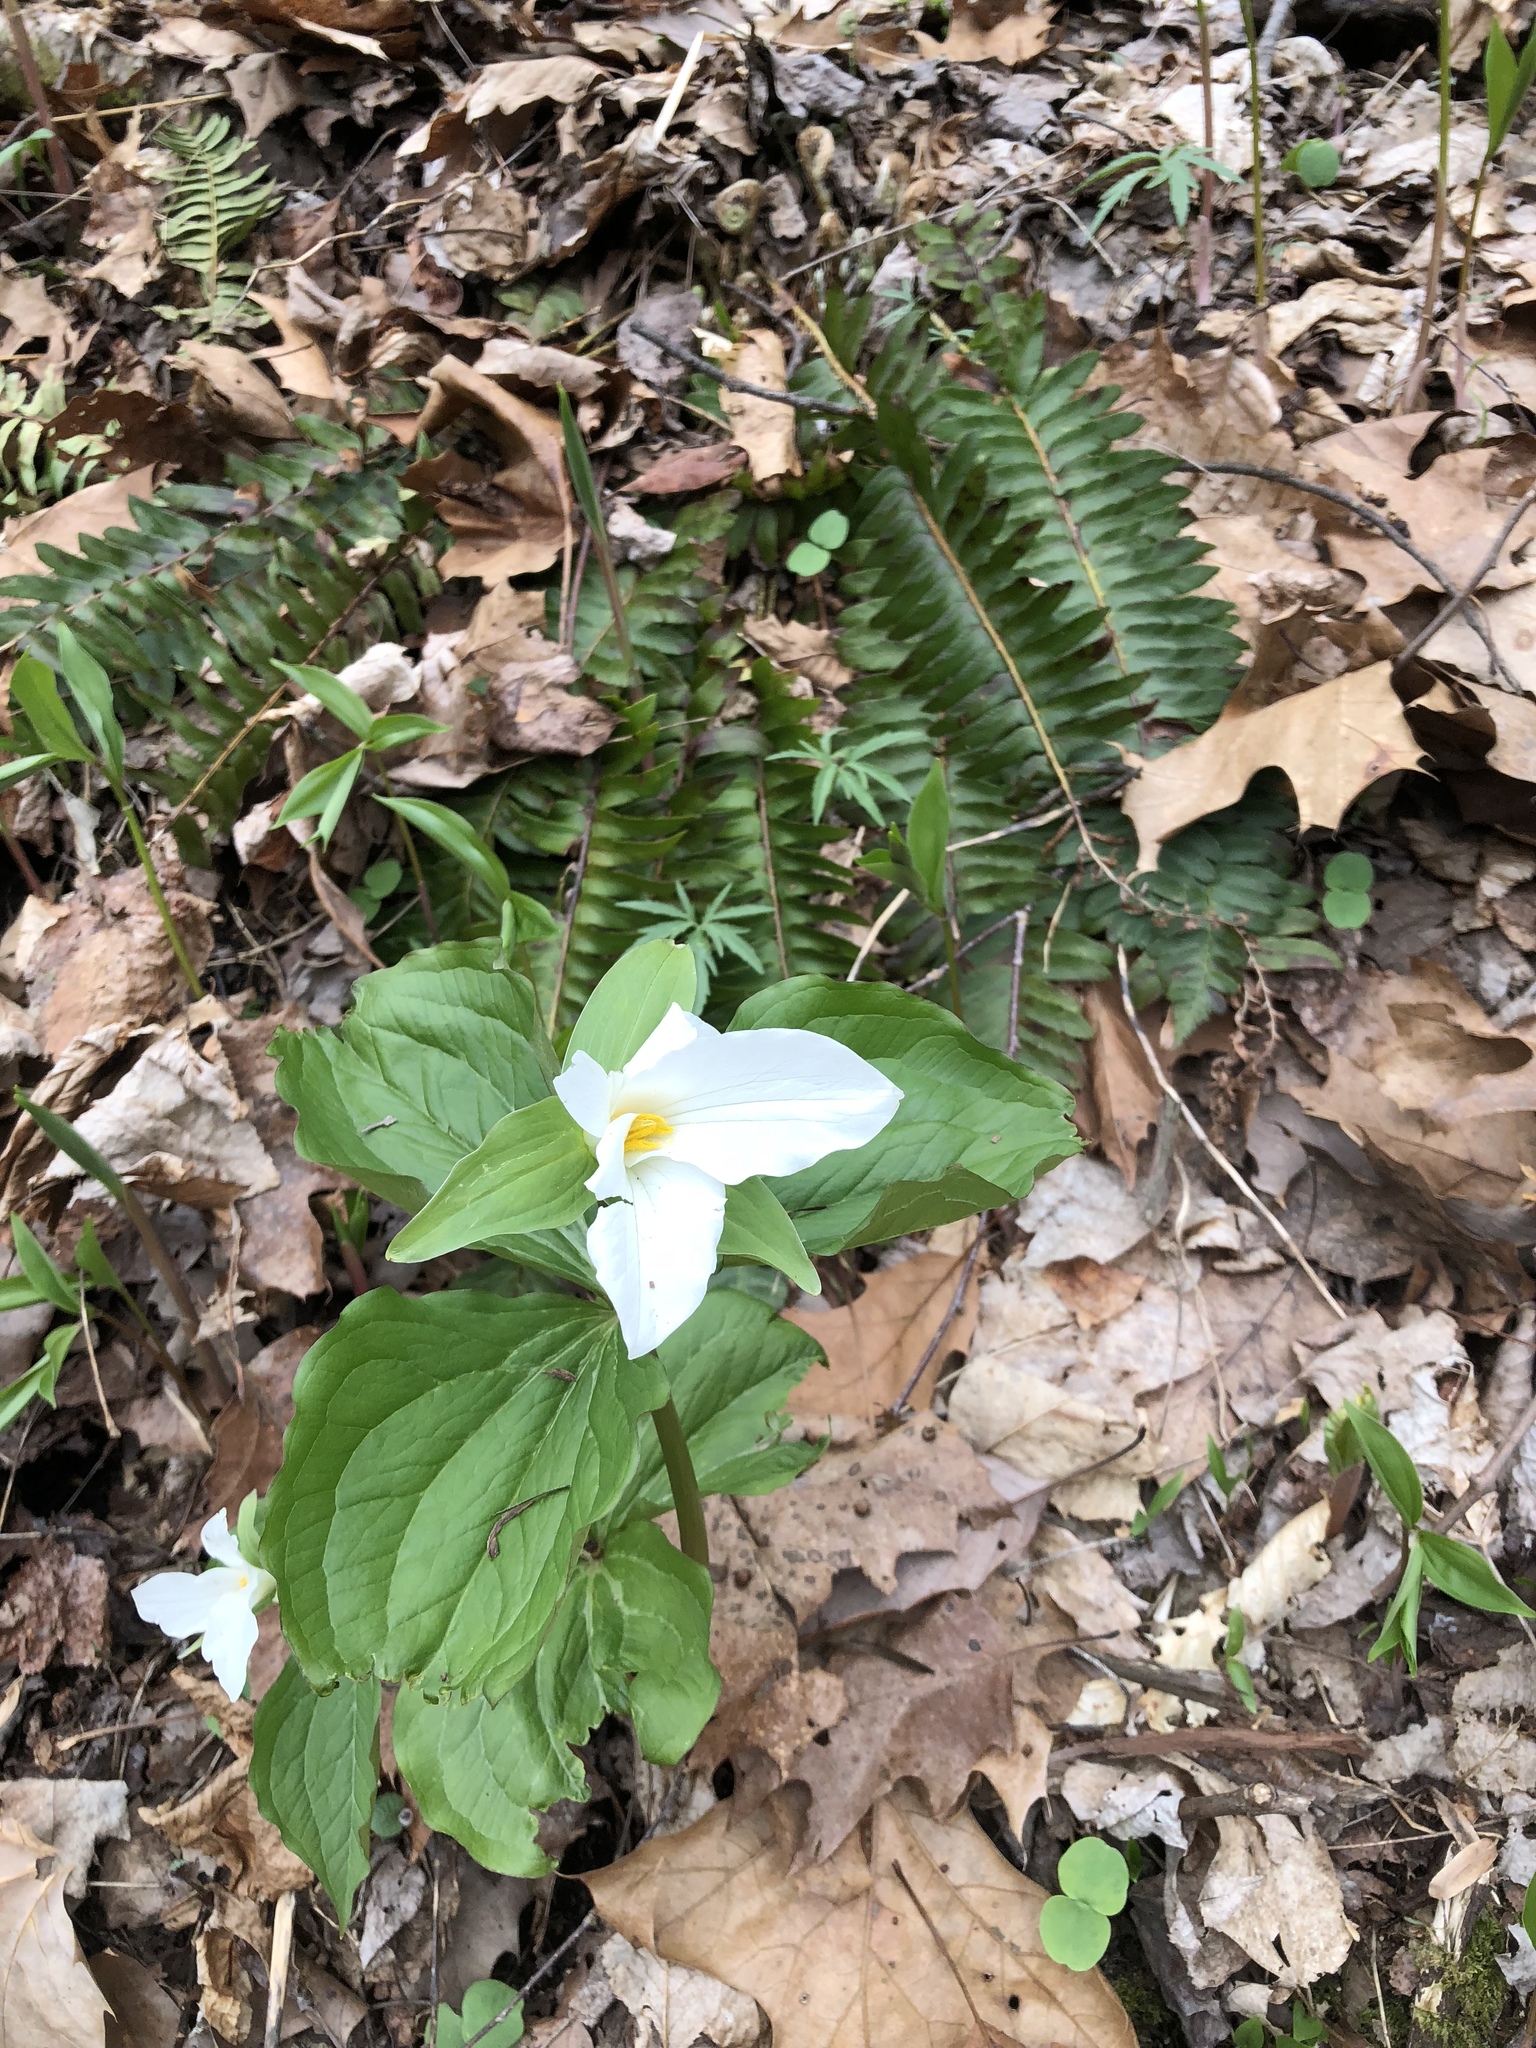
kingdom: Plantae
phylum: Tracheophyta
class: Liliopsida
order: Liliales
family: Melanthiaceae
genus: Trillium
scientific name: Trillium grandiflorum
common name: Great white trillium
